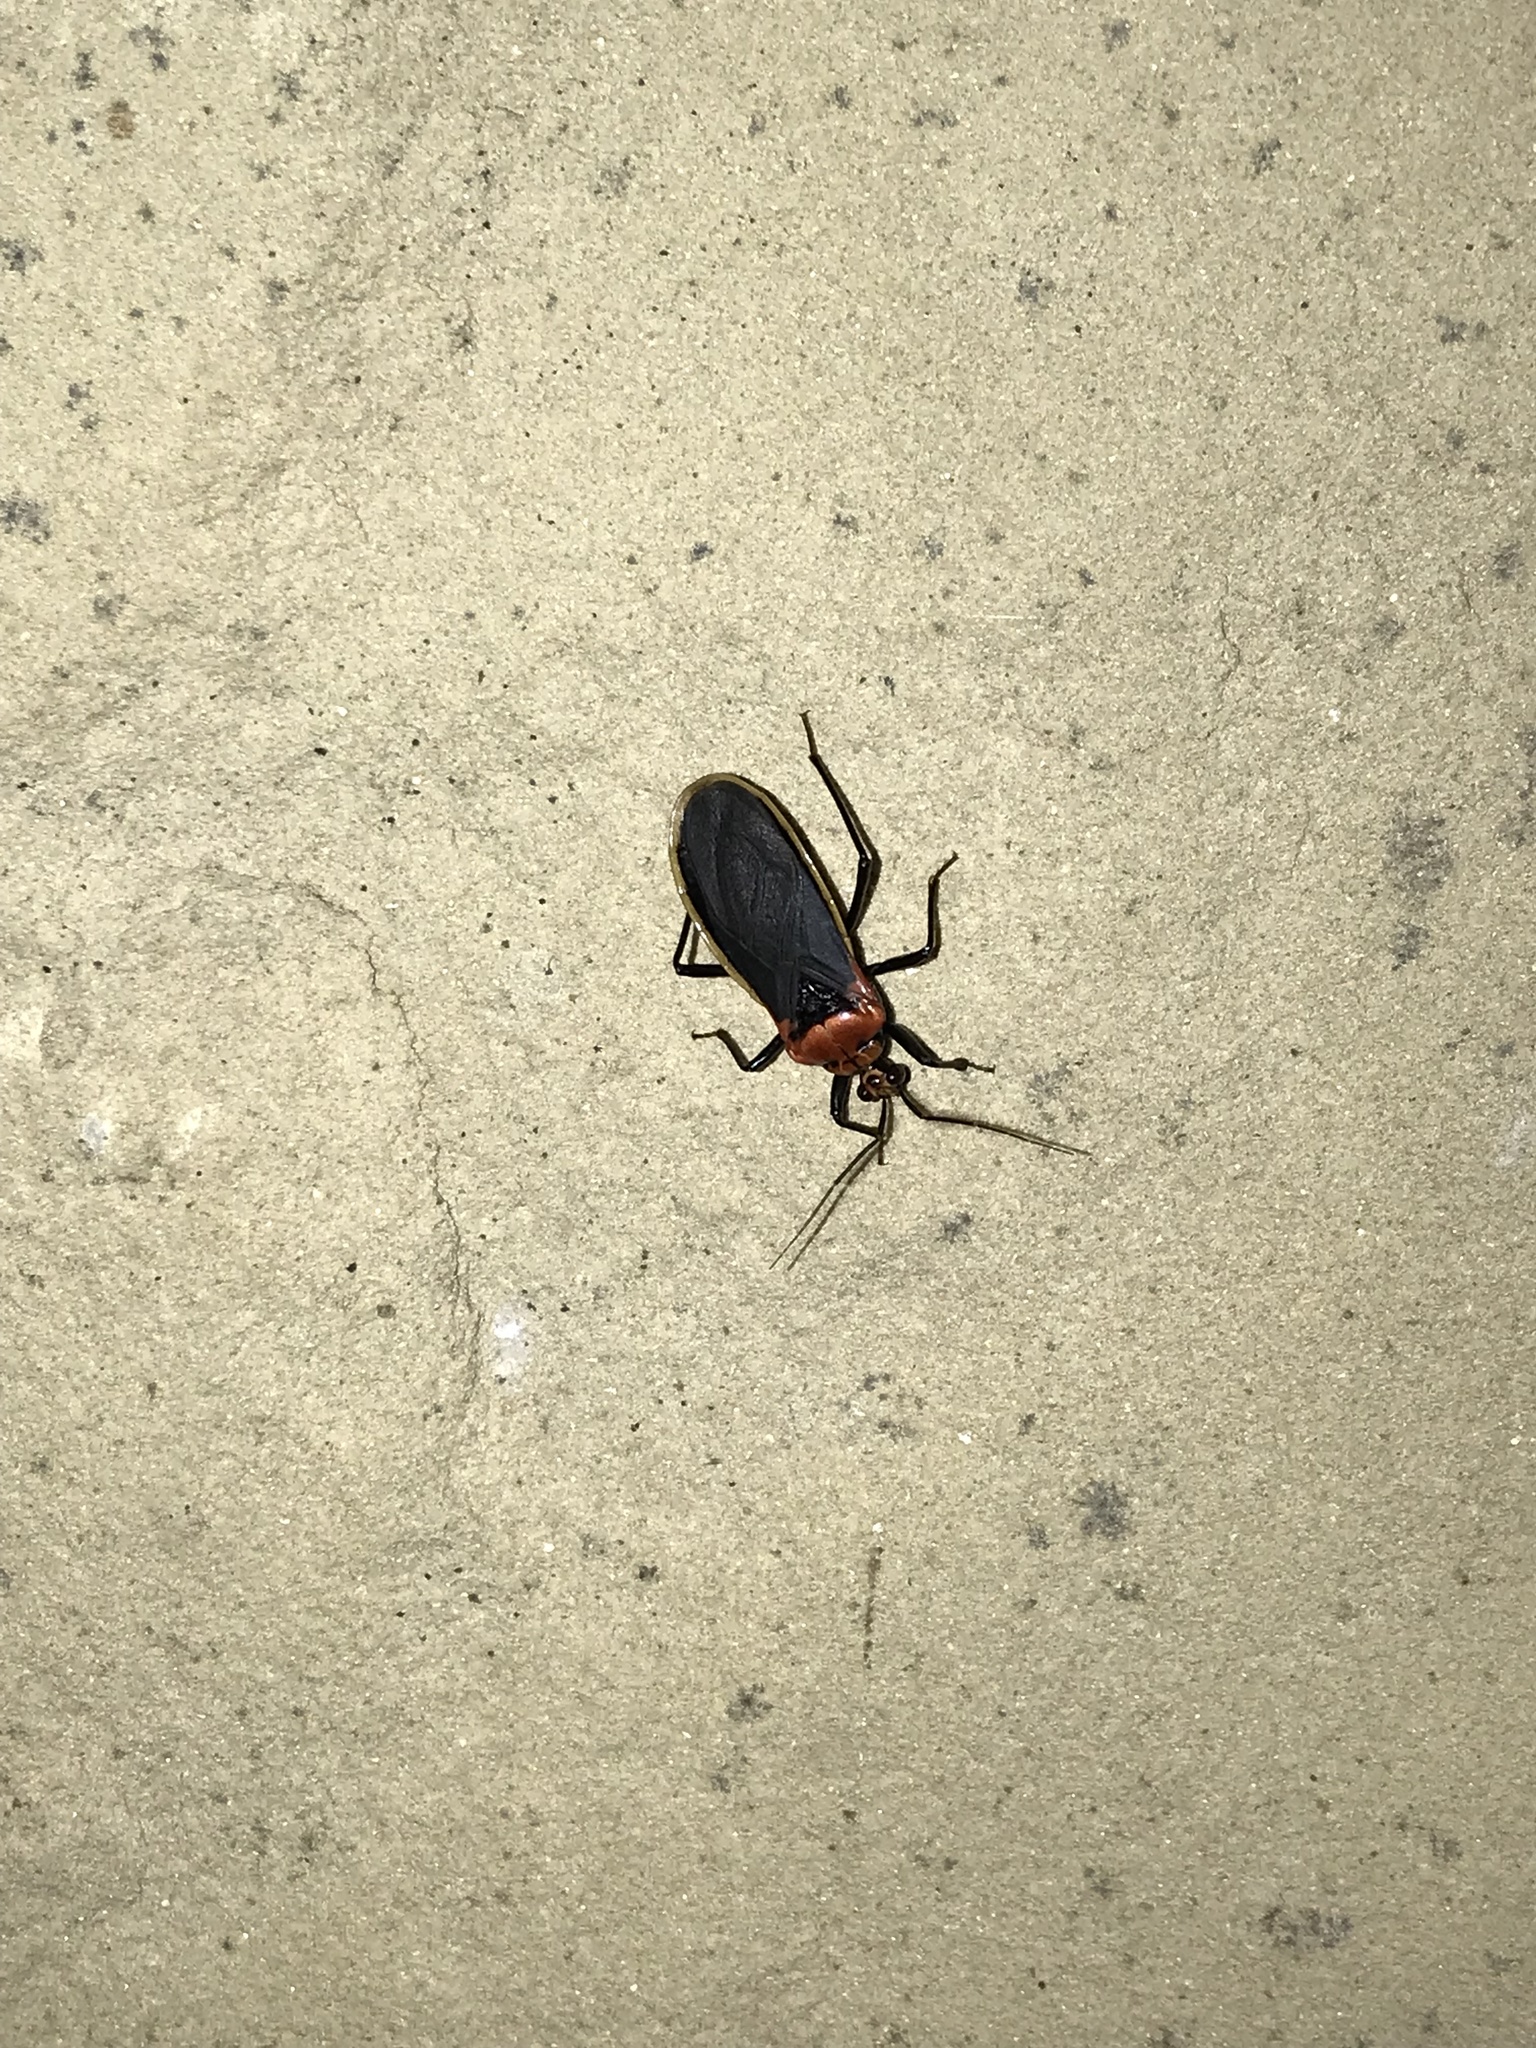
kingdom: Animalia
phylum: Arthropoda
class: Insecta
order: Hemiptera
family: Reduviidae
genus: Rhiginia
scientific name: Rhiginia cinctiventris
